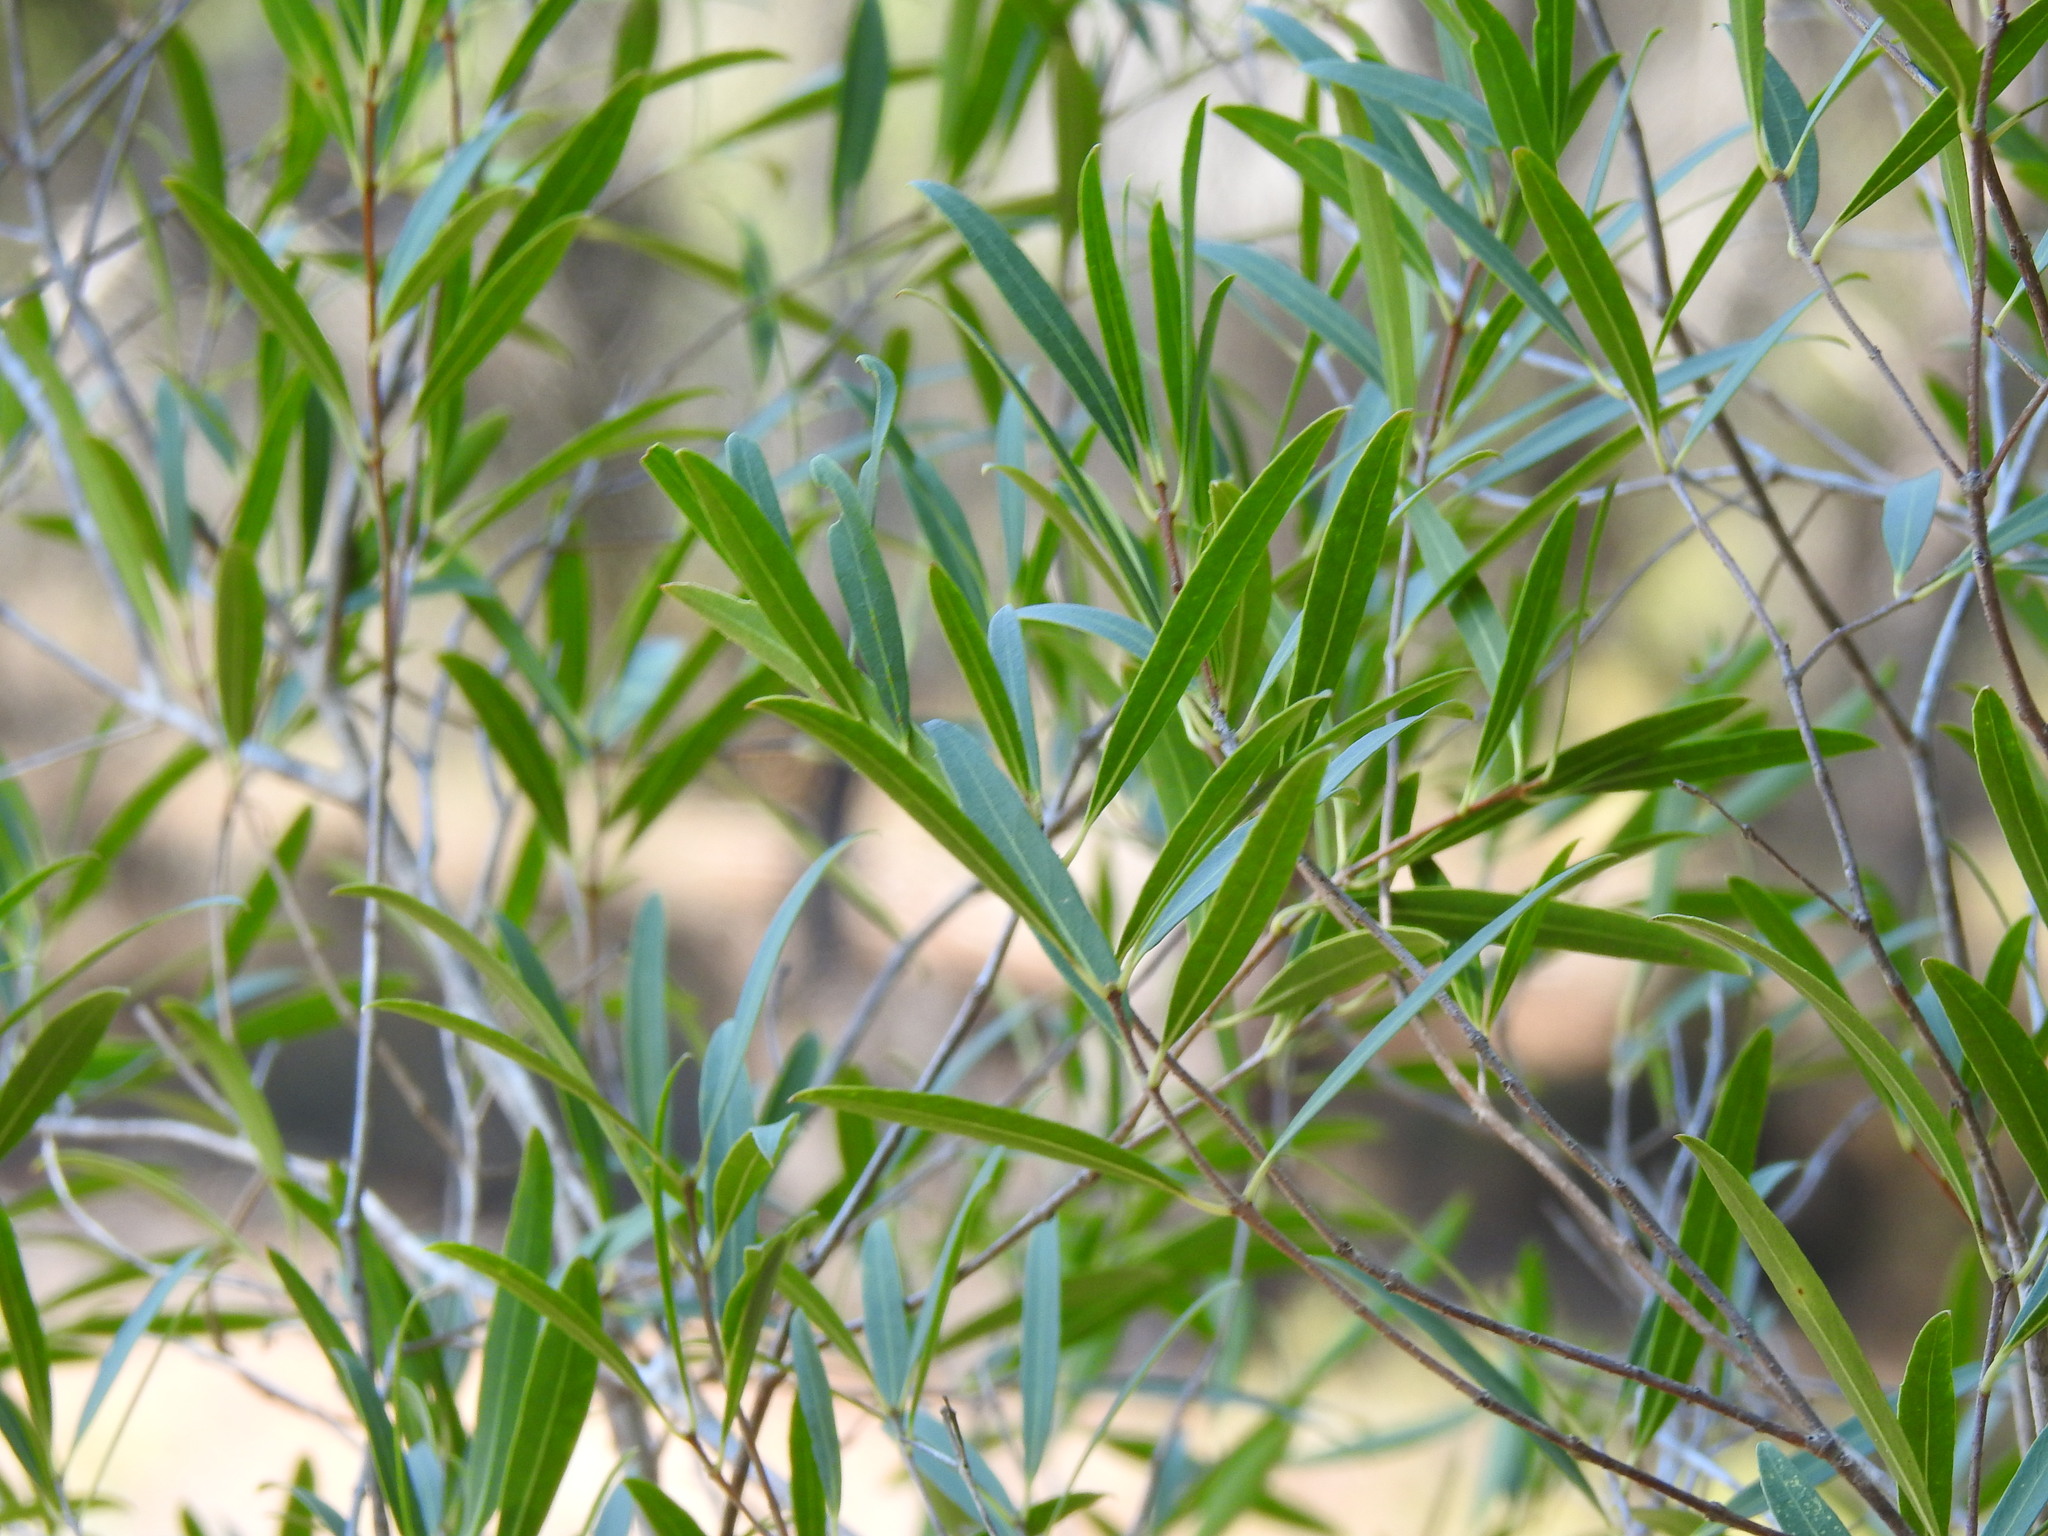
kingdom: Plantae
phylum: Tracheophyta
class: Magnoliopsida
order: Lamiales
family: Oleaceae
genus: Phillyrea
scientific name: Phillyrea angustifolia
